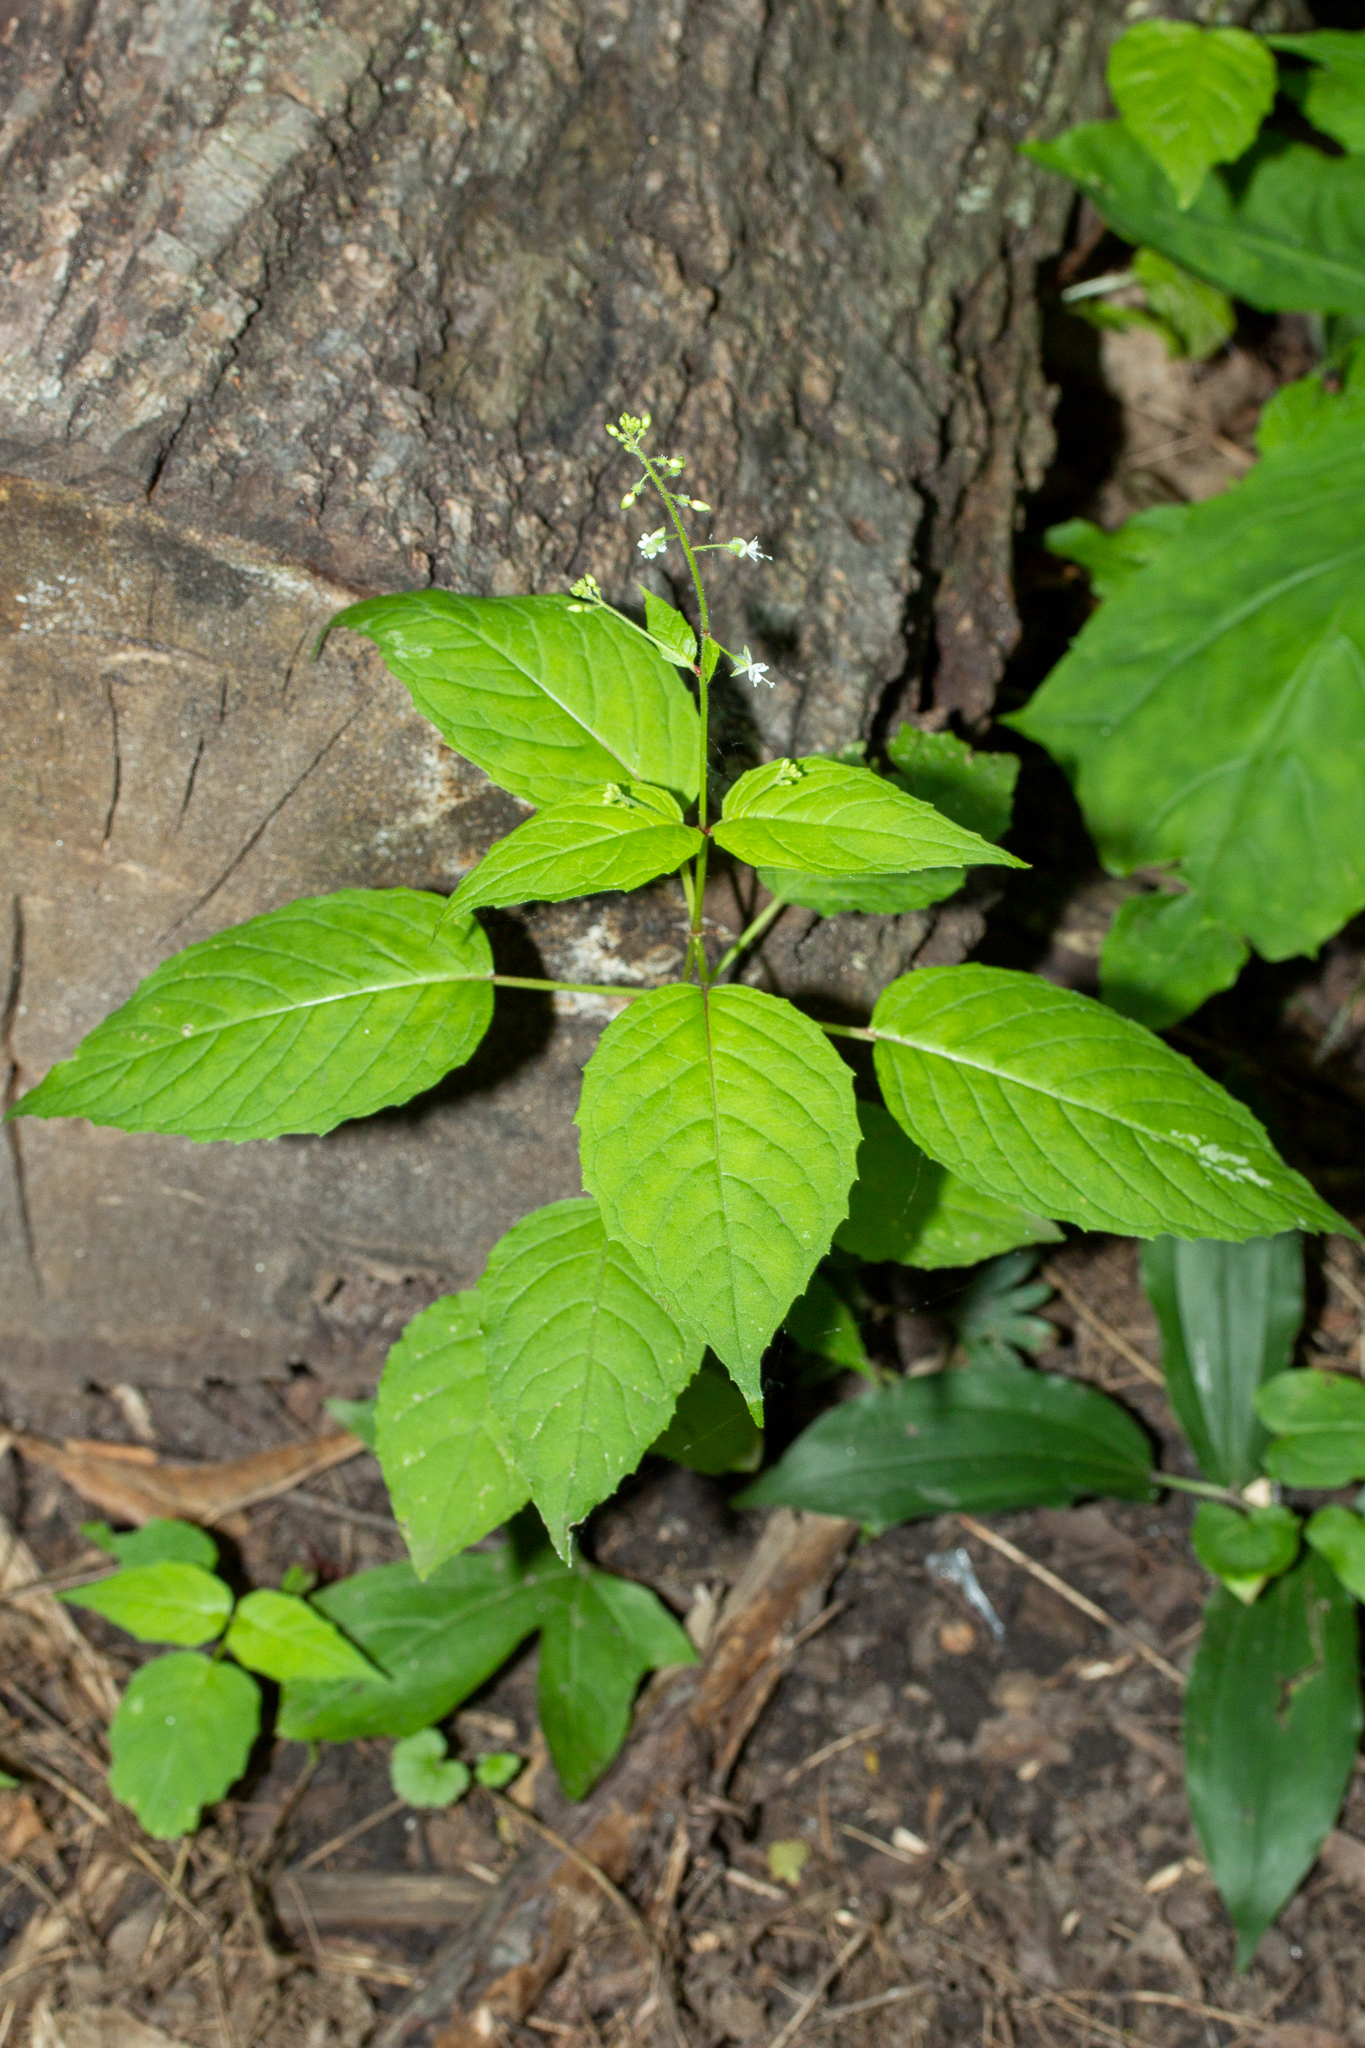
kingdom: Plantae
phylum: Tracheophyta
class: Magnoliopsida
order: Myrtales
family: Onagraceae
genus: Circaea
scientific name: Circaea canadensis
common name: Broad-leaved enchanter's nightshade
